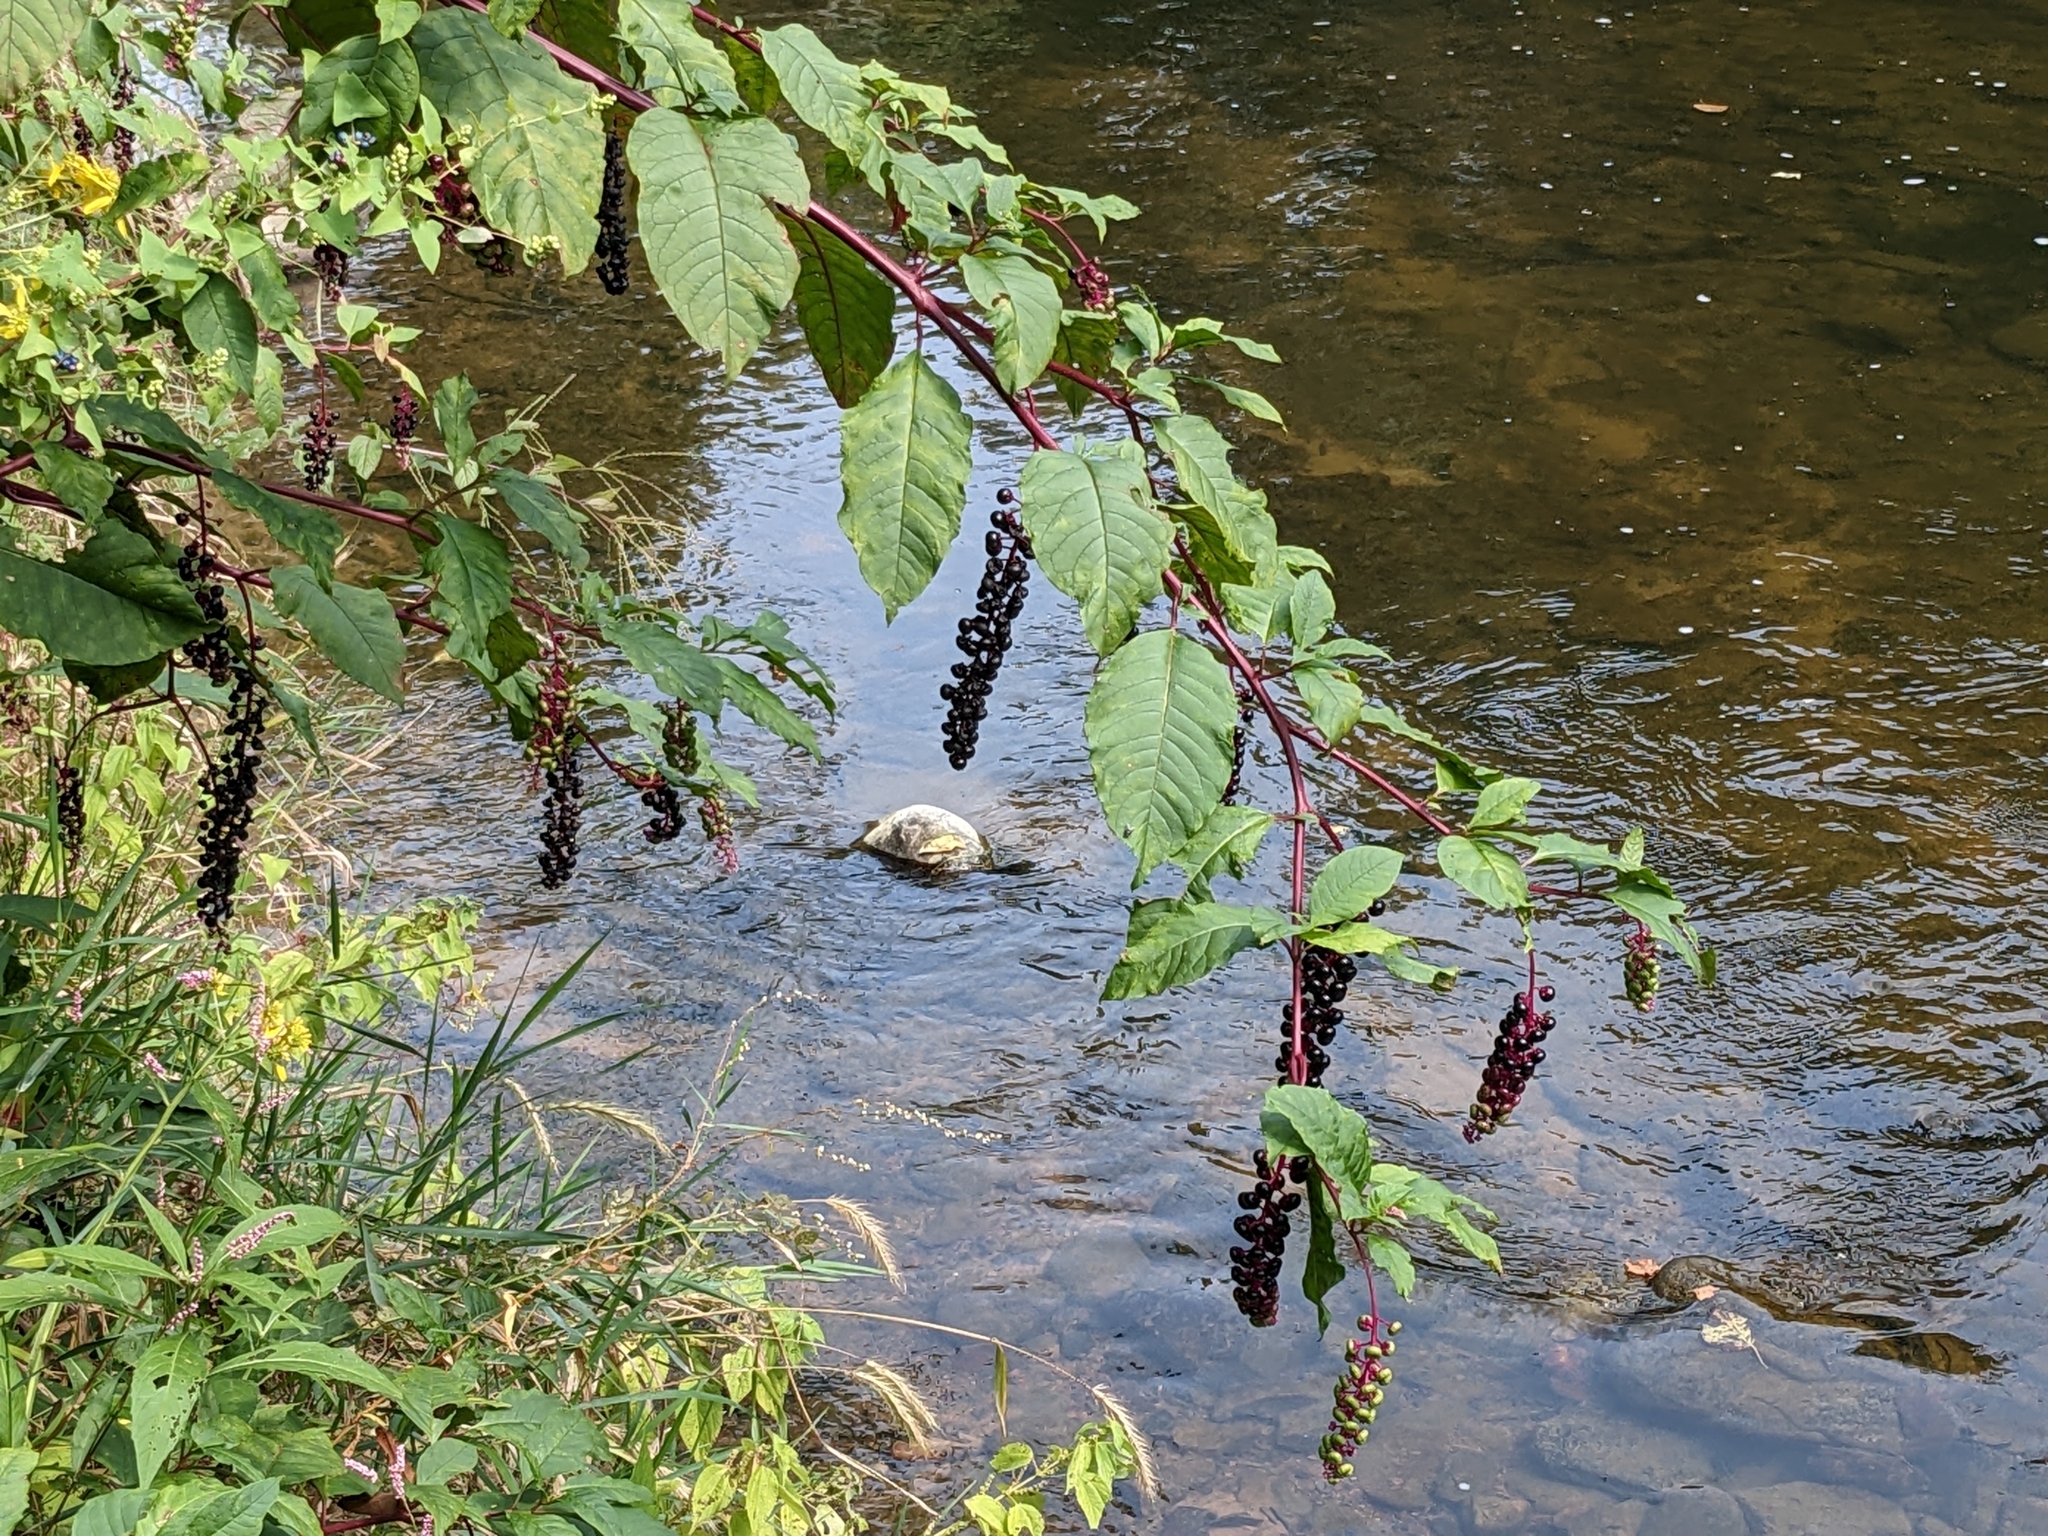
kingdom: Plantae
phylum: Tracheophyta
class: Magnoliopsida
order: Caryophyllales
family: Phytolaccaceae
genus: Phytolacca
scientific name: Phytolacca americana
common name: American pokeweed
